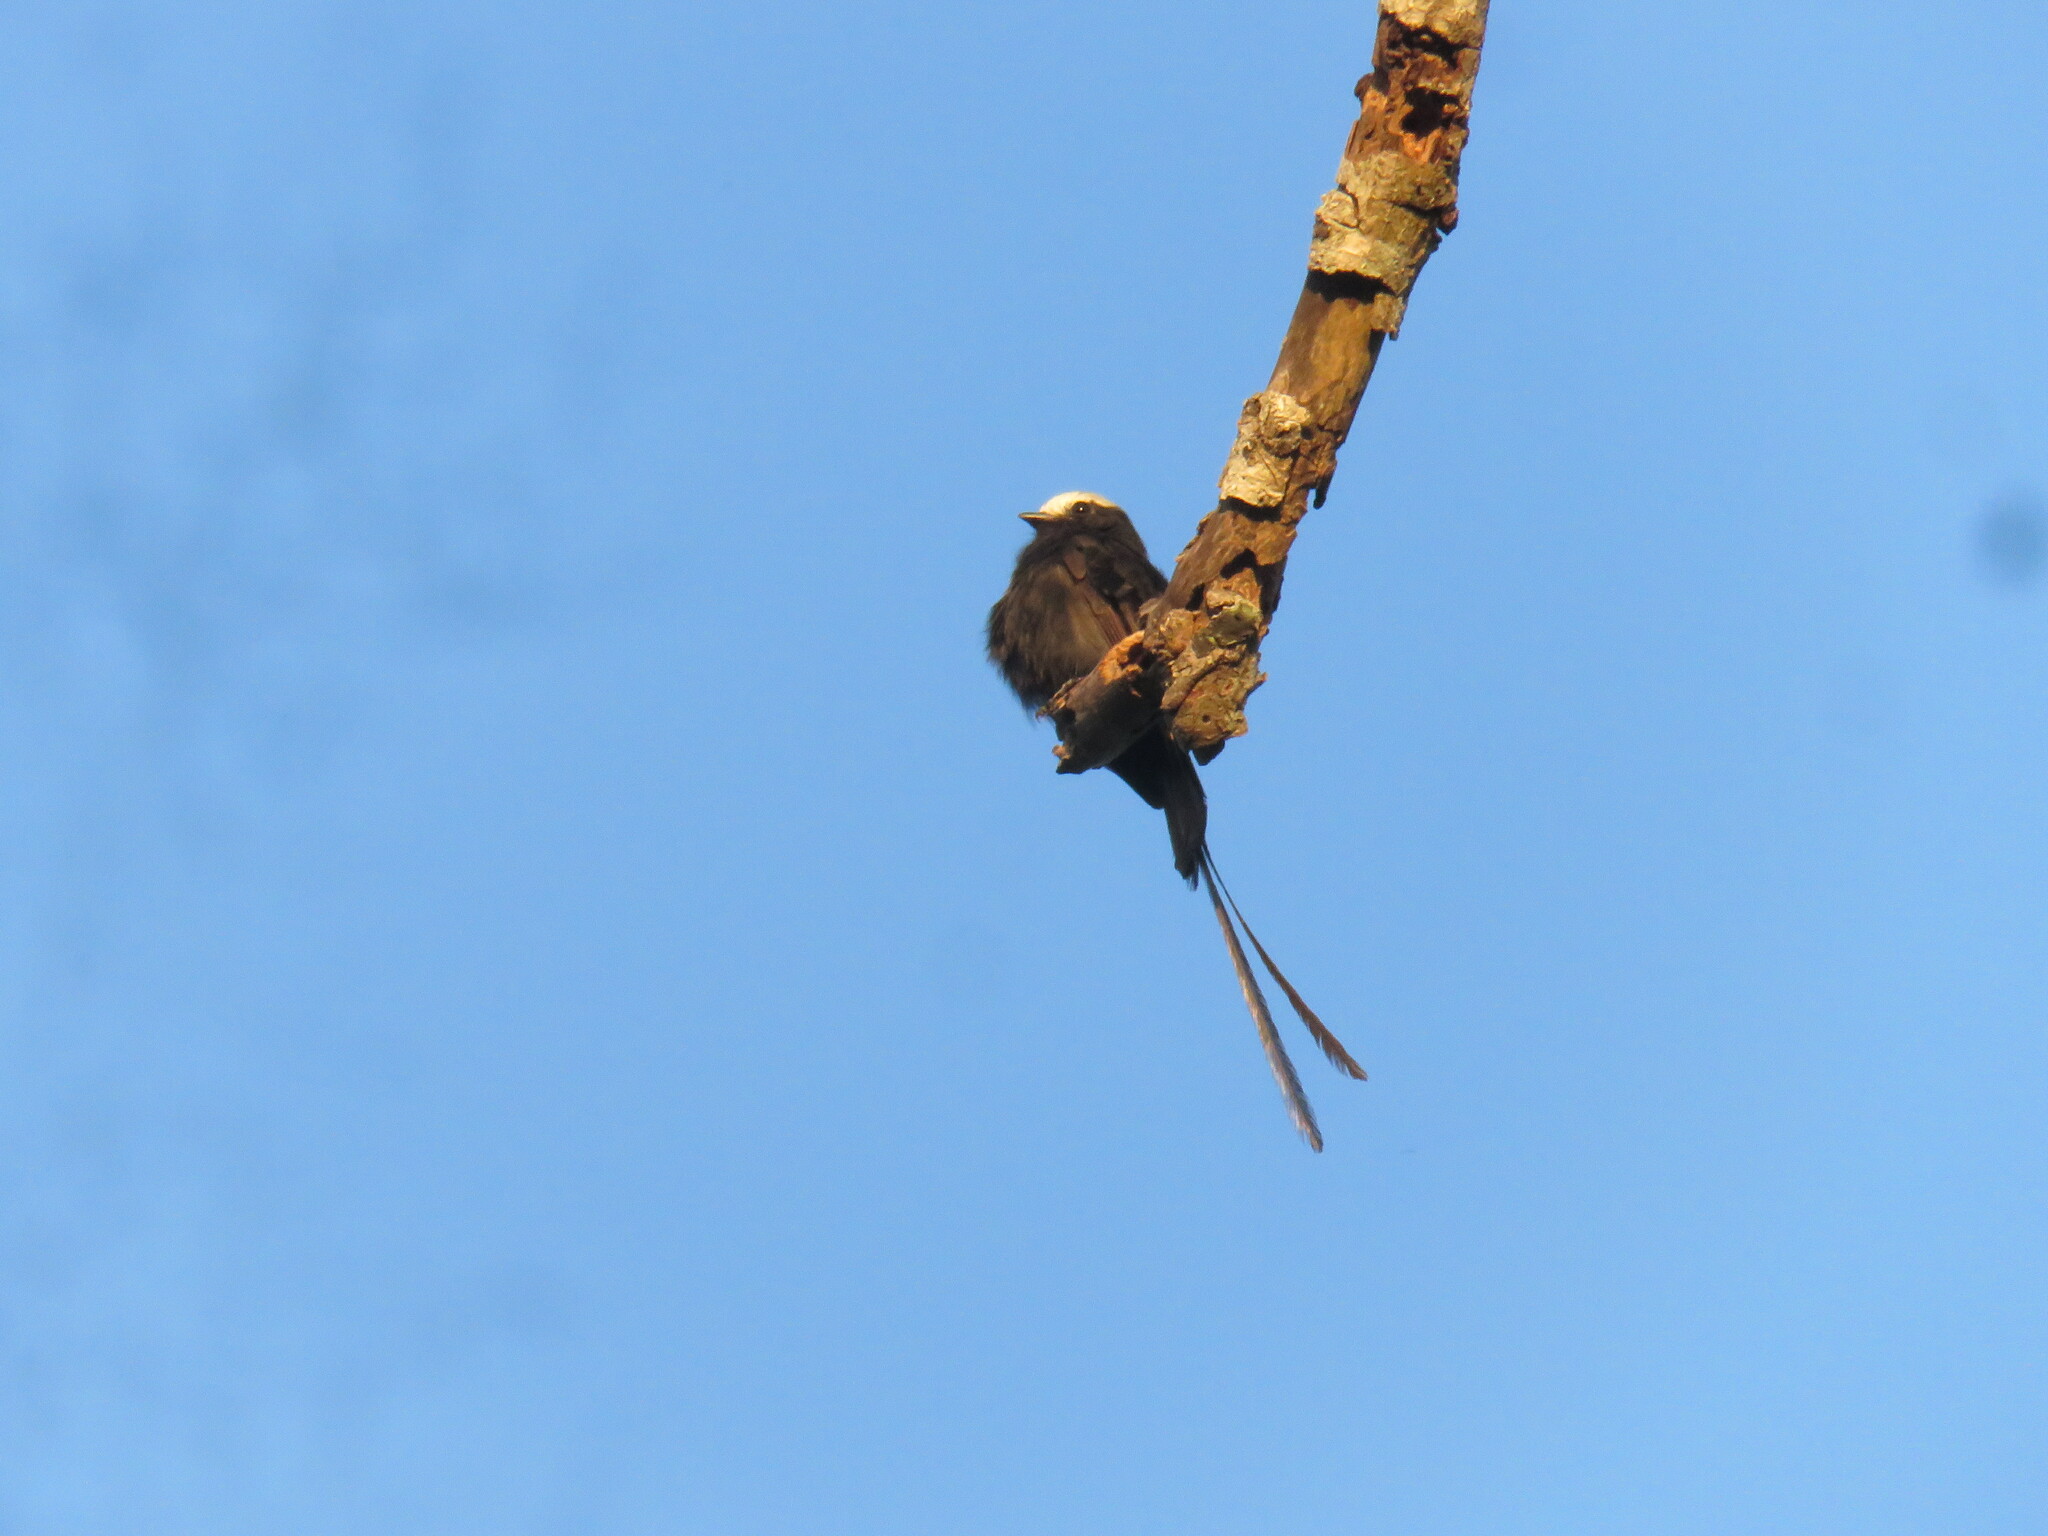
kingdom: Animalia
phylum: Chordata
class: Aves
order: Passeriformes
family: Tyrannidae
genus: Colonia
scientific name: Colonia colonus
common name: Long-tailed tyrant
